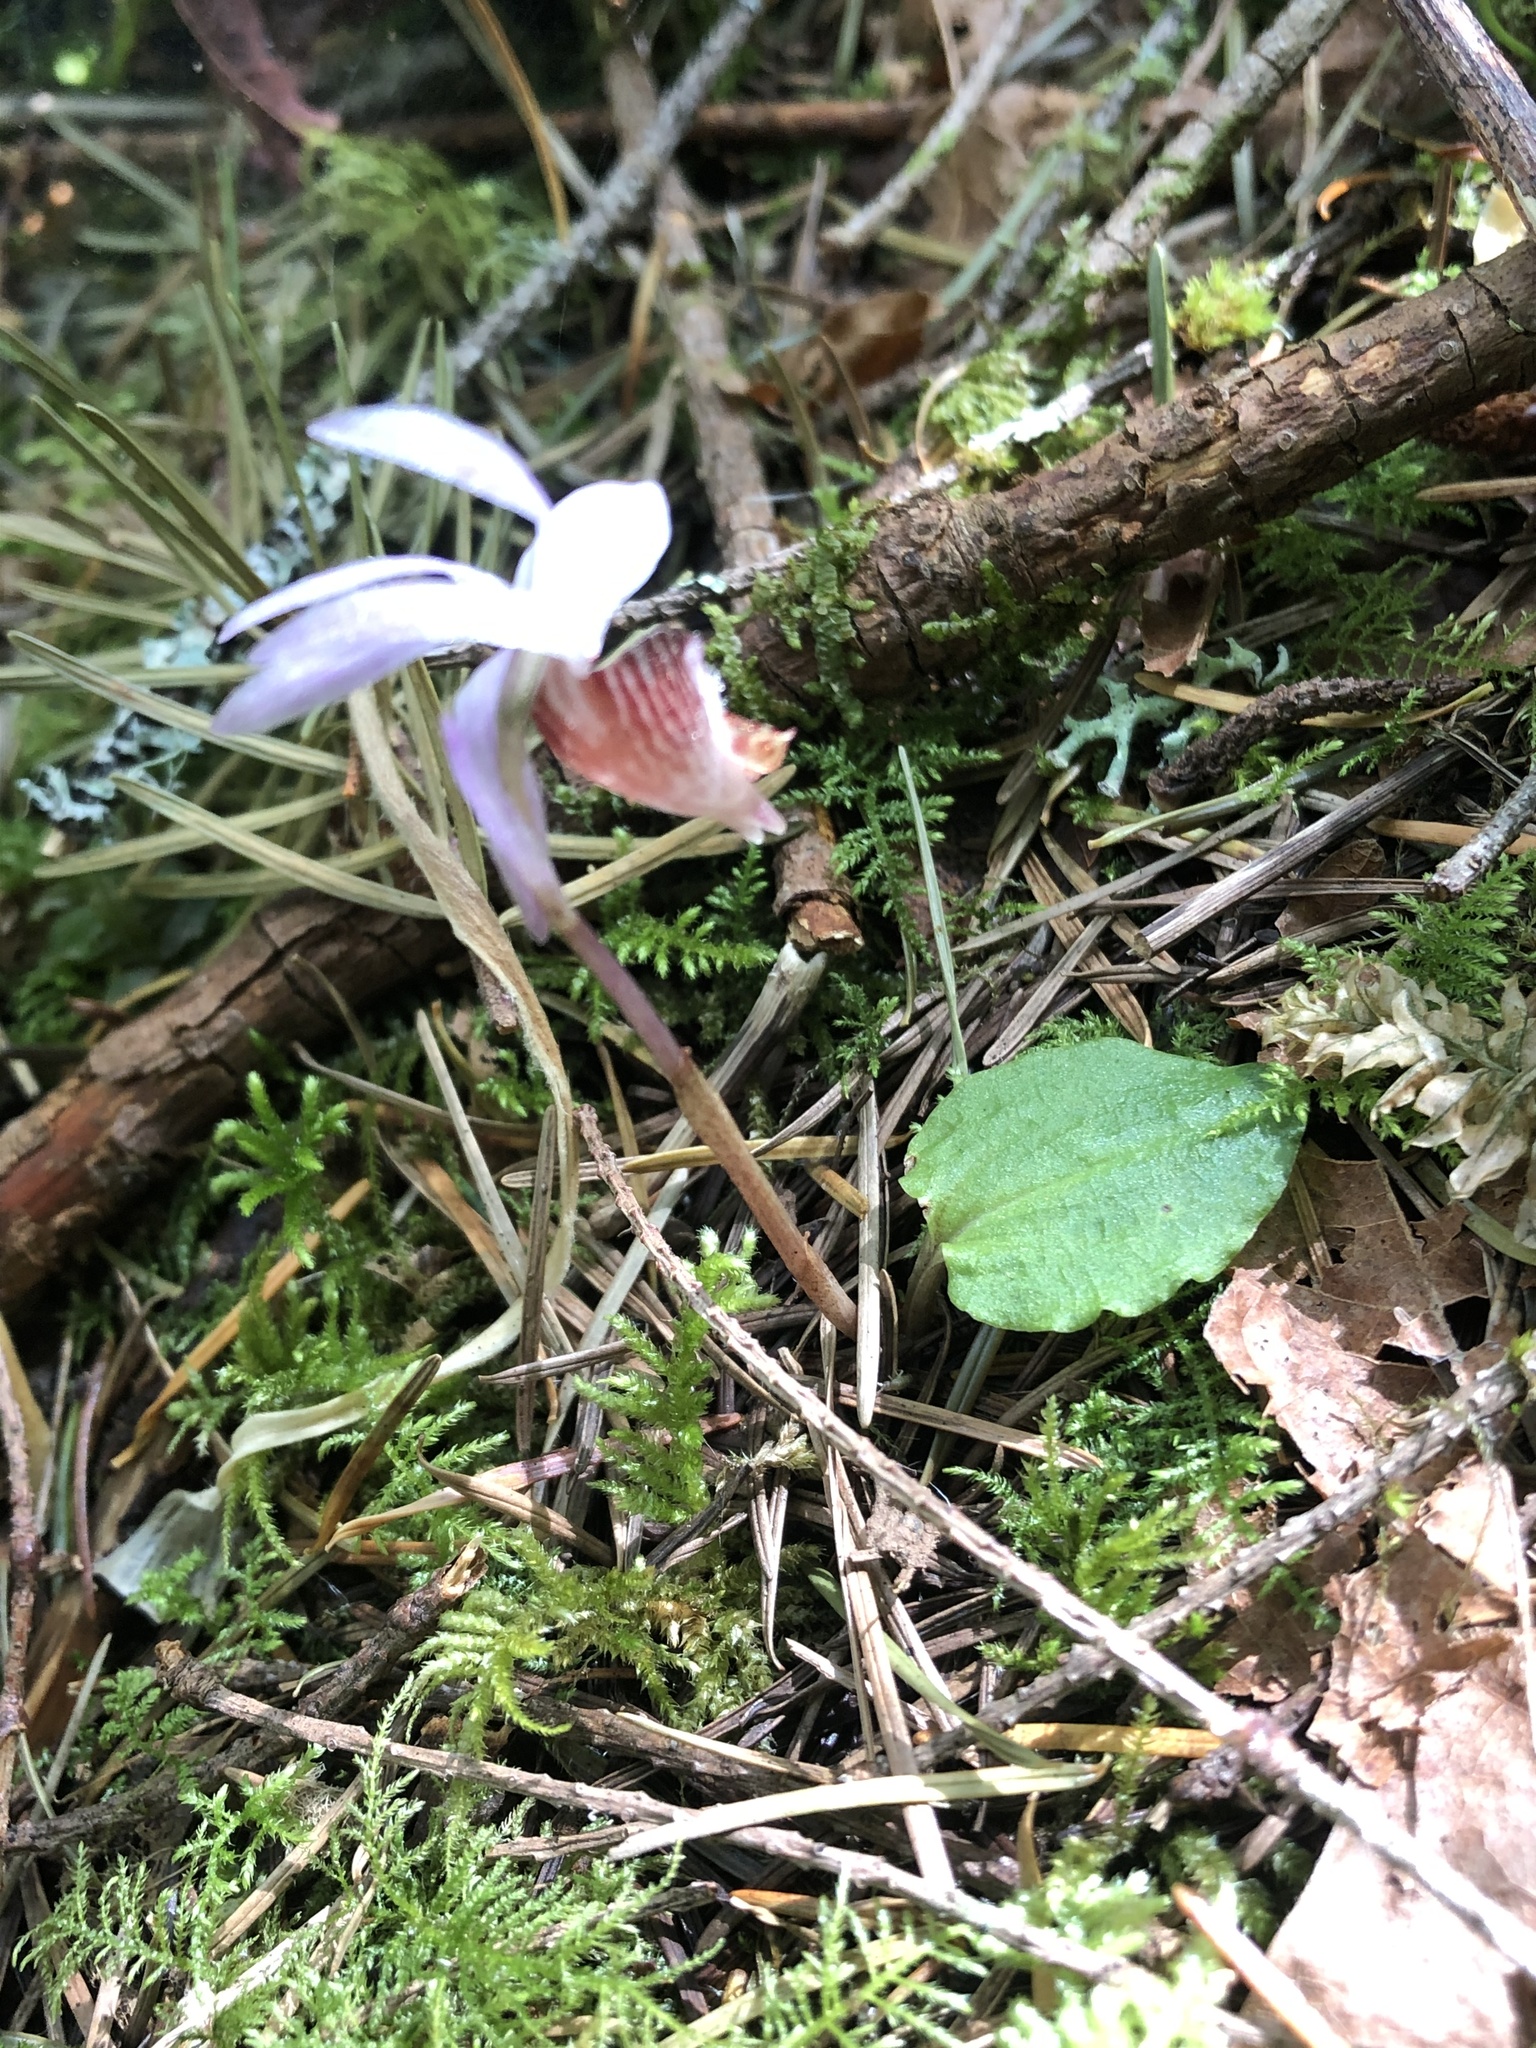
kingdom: Plantae
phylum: Tracheophyta
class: Liliopsida
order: Asparagales
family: Orchidaceae
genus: Calypso
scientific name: Calypso bulbosa
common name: Calypso
